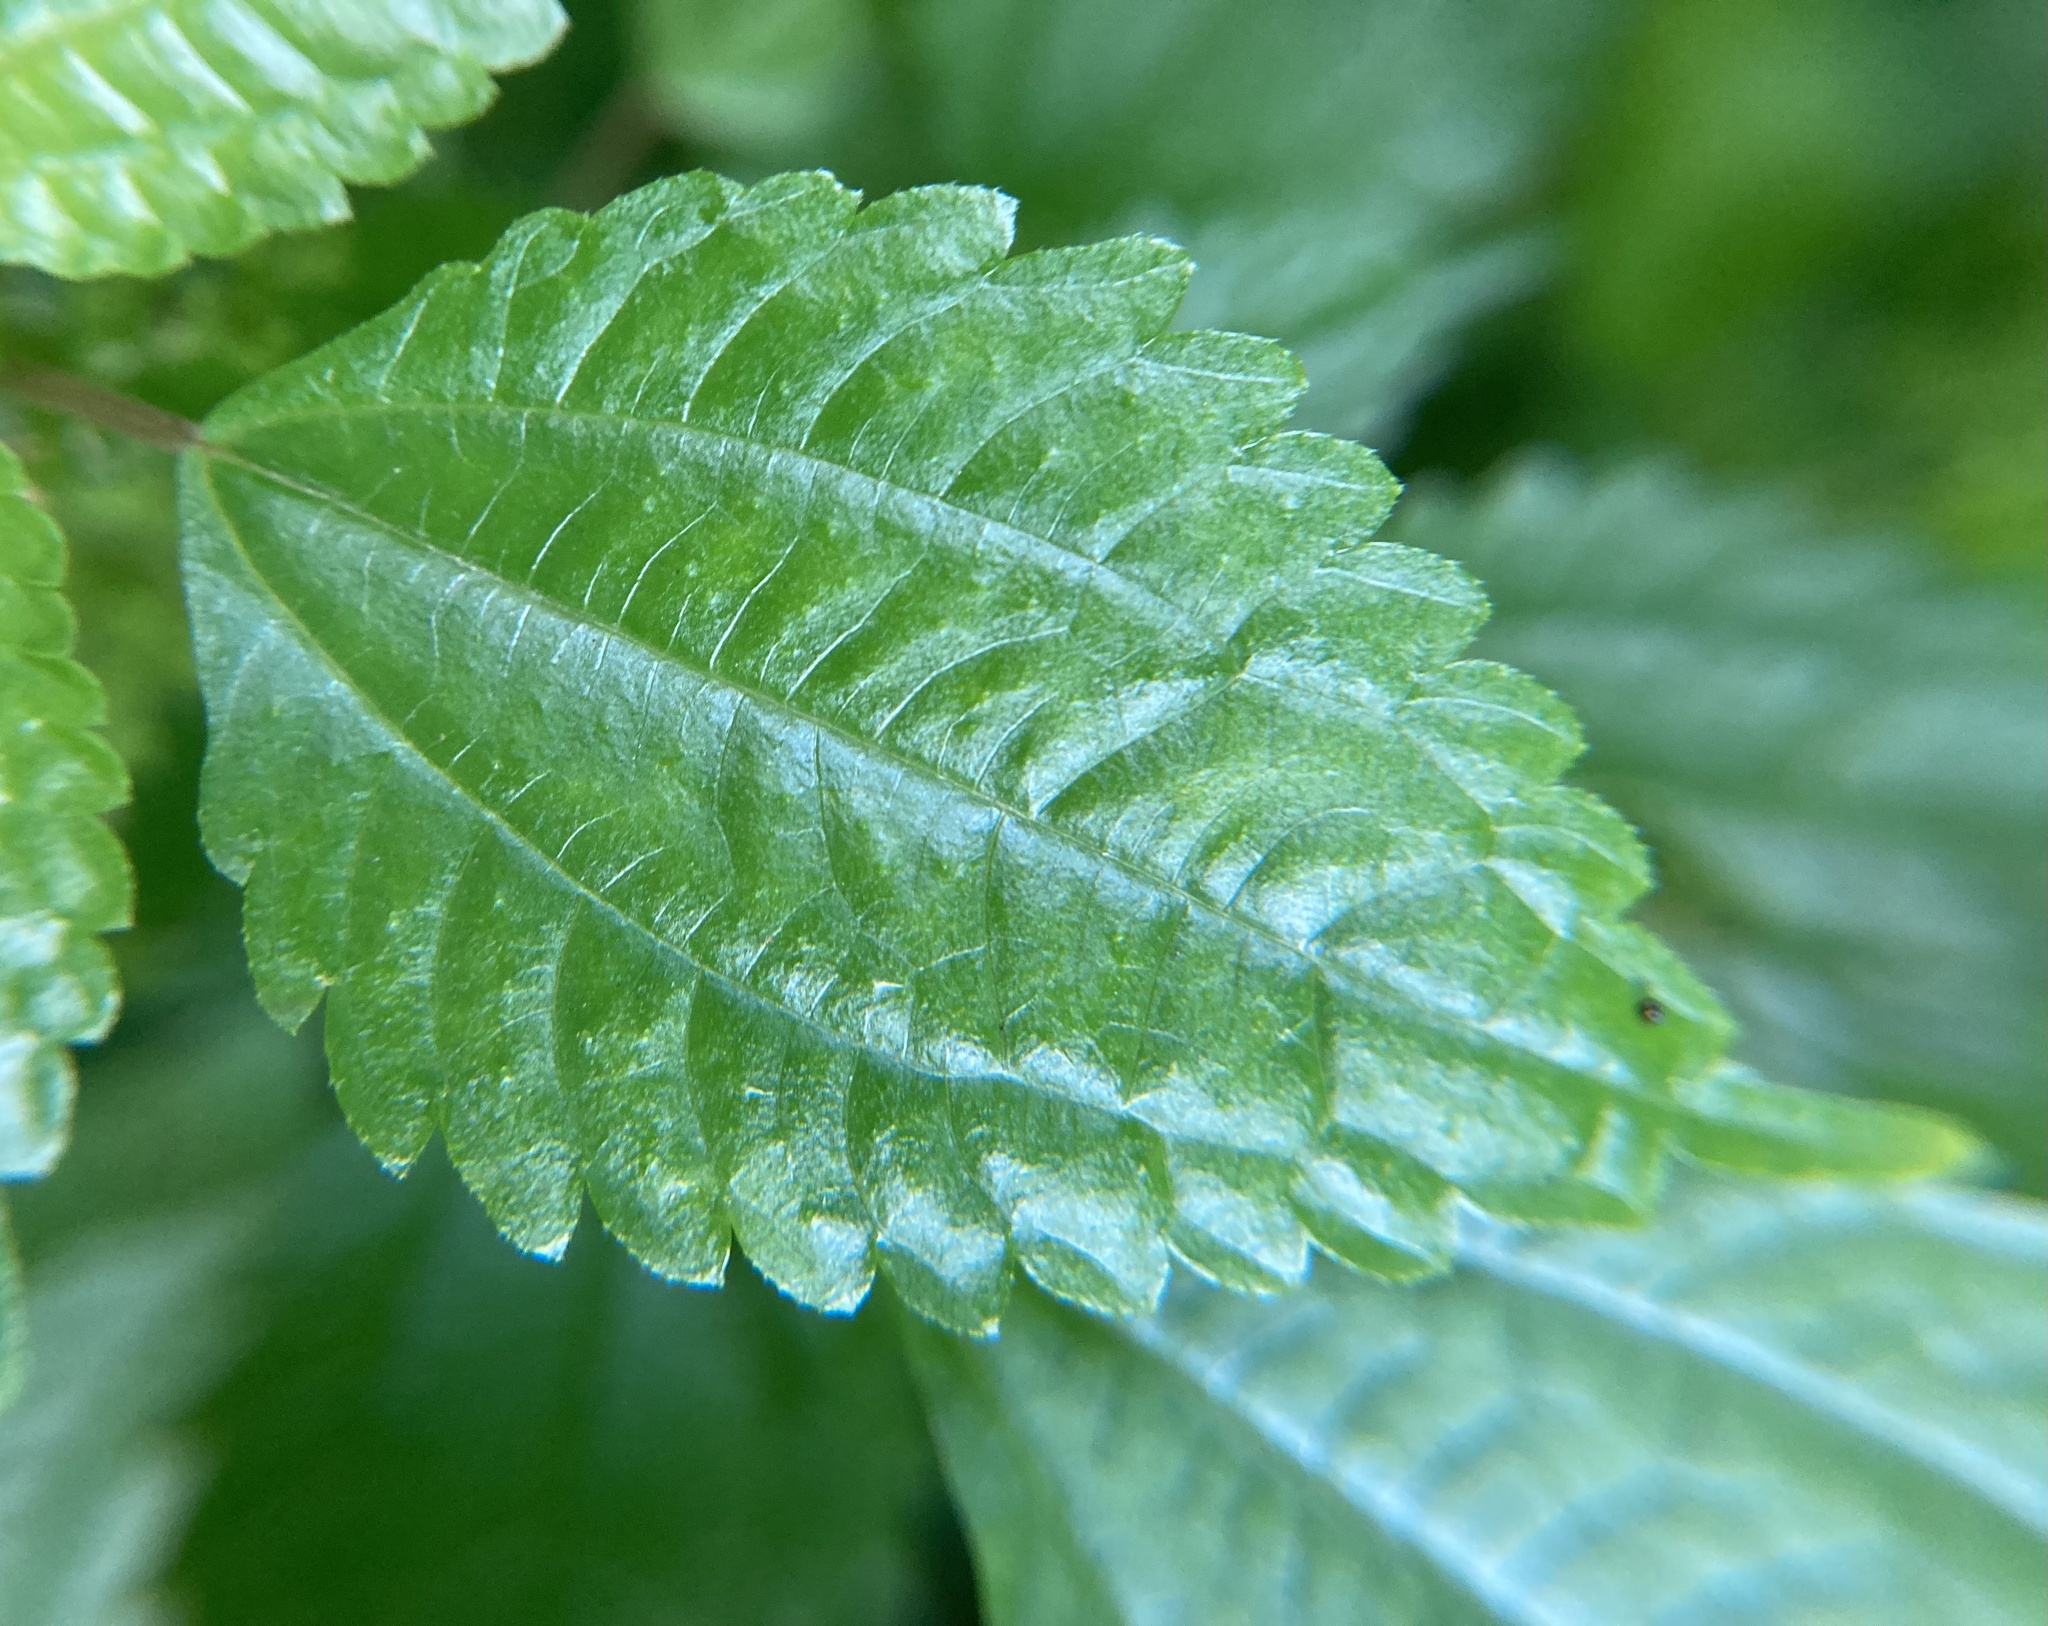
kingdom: Plantae
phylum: Tracheophyta
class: Magnoliopsida
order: Rosales
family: Urticaceae
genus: Pilea
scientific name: Pilea pumila
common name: Clearweed
